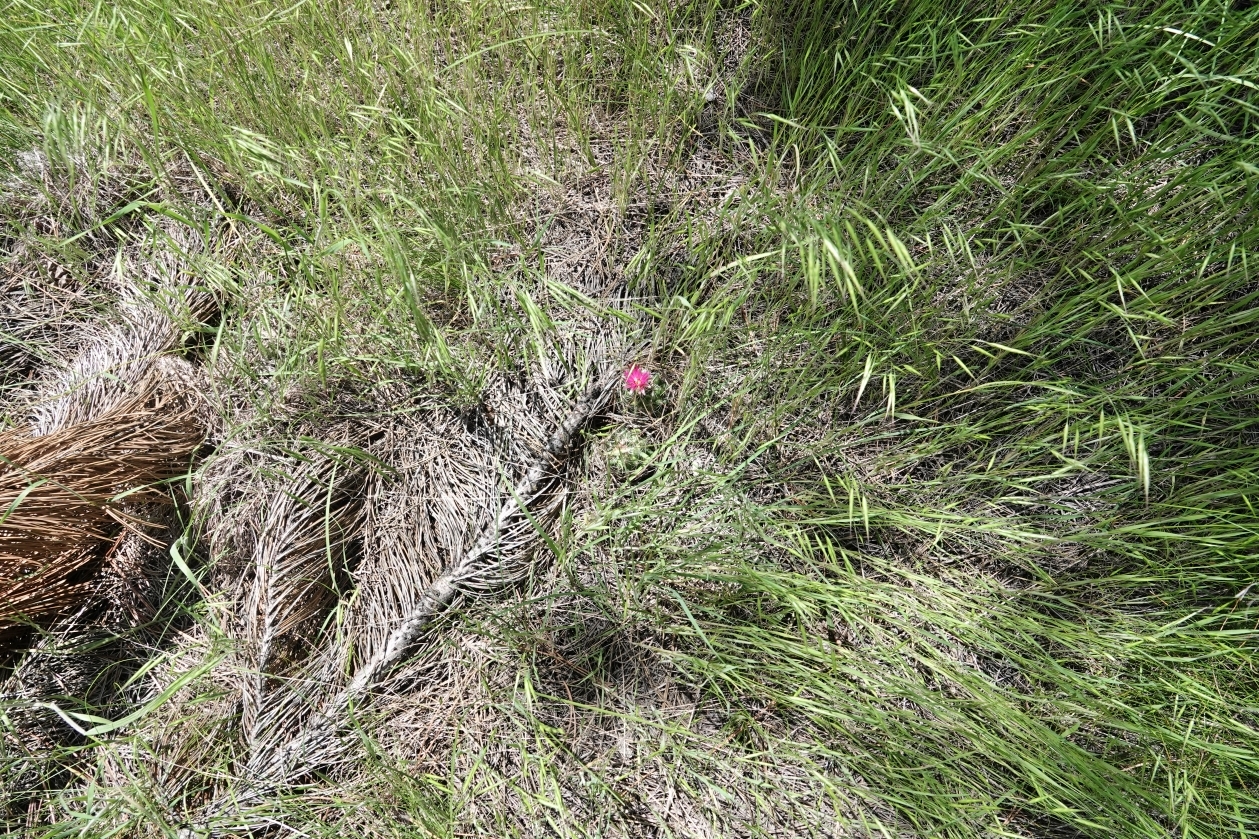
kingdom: Plantae
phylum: Tracheophyta
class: Magnoliopsida
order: Caryophyllales
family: Cactaceae
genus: Pelecyphora
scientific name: Pelecyphora vivipara
